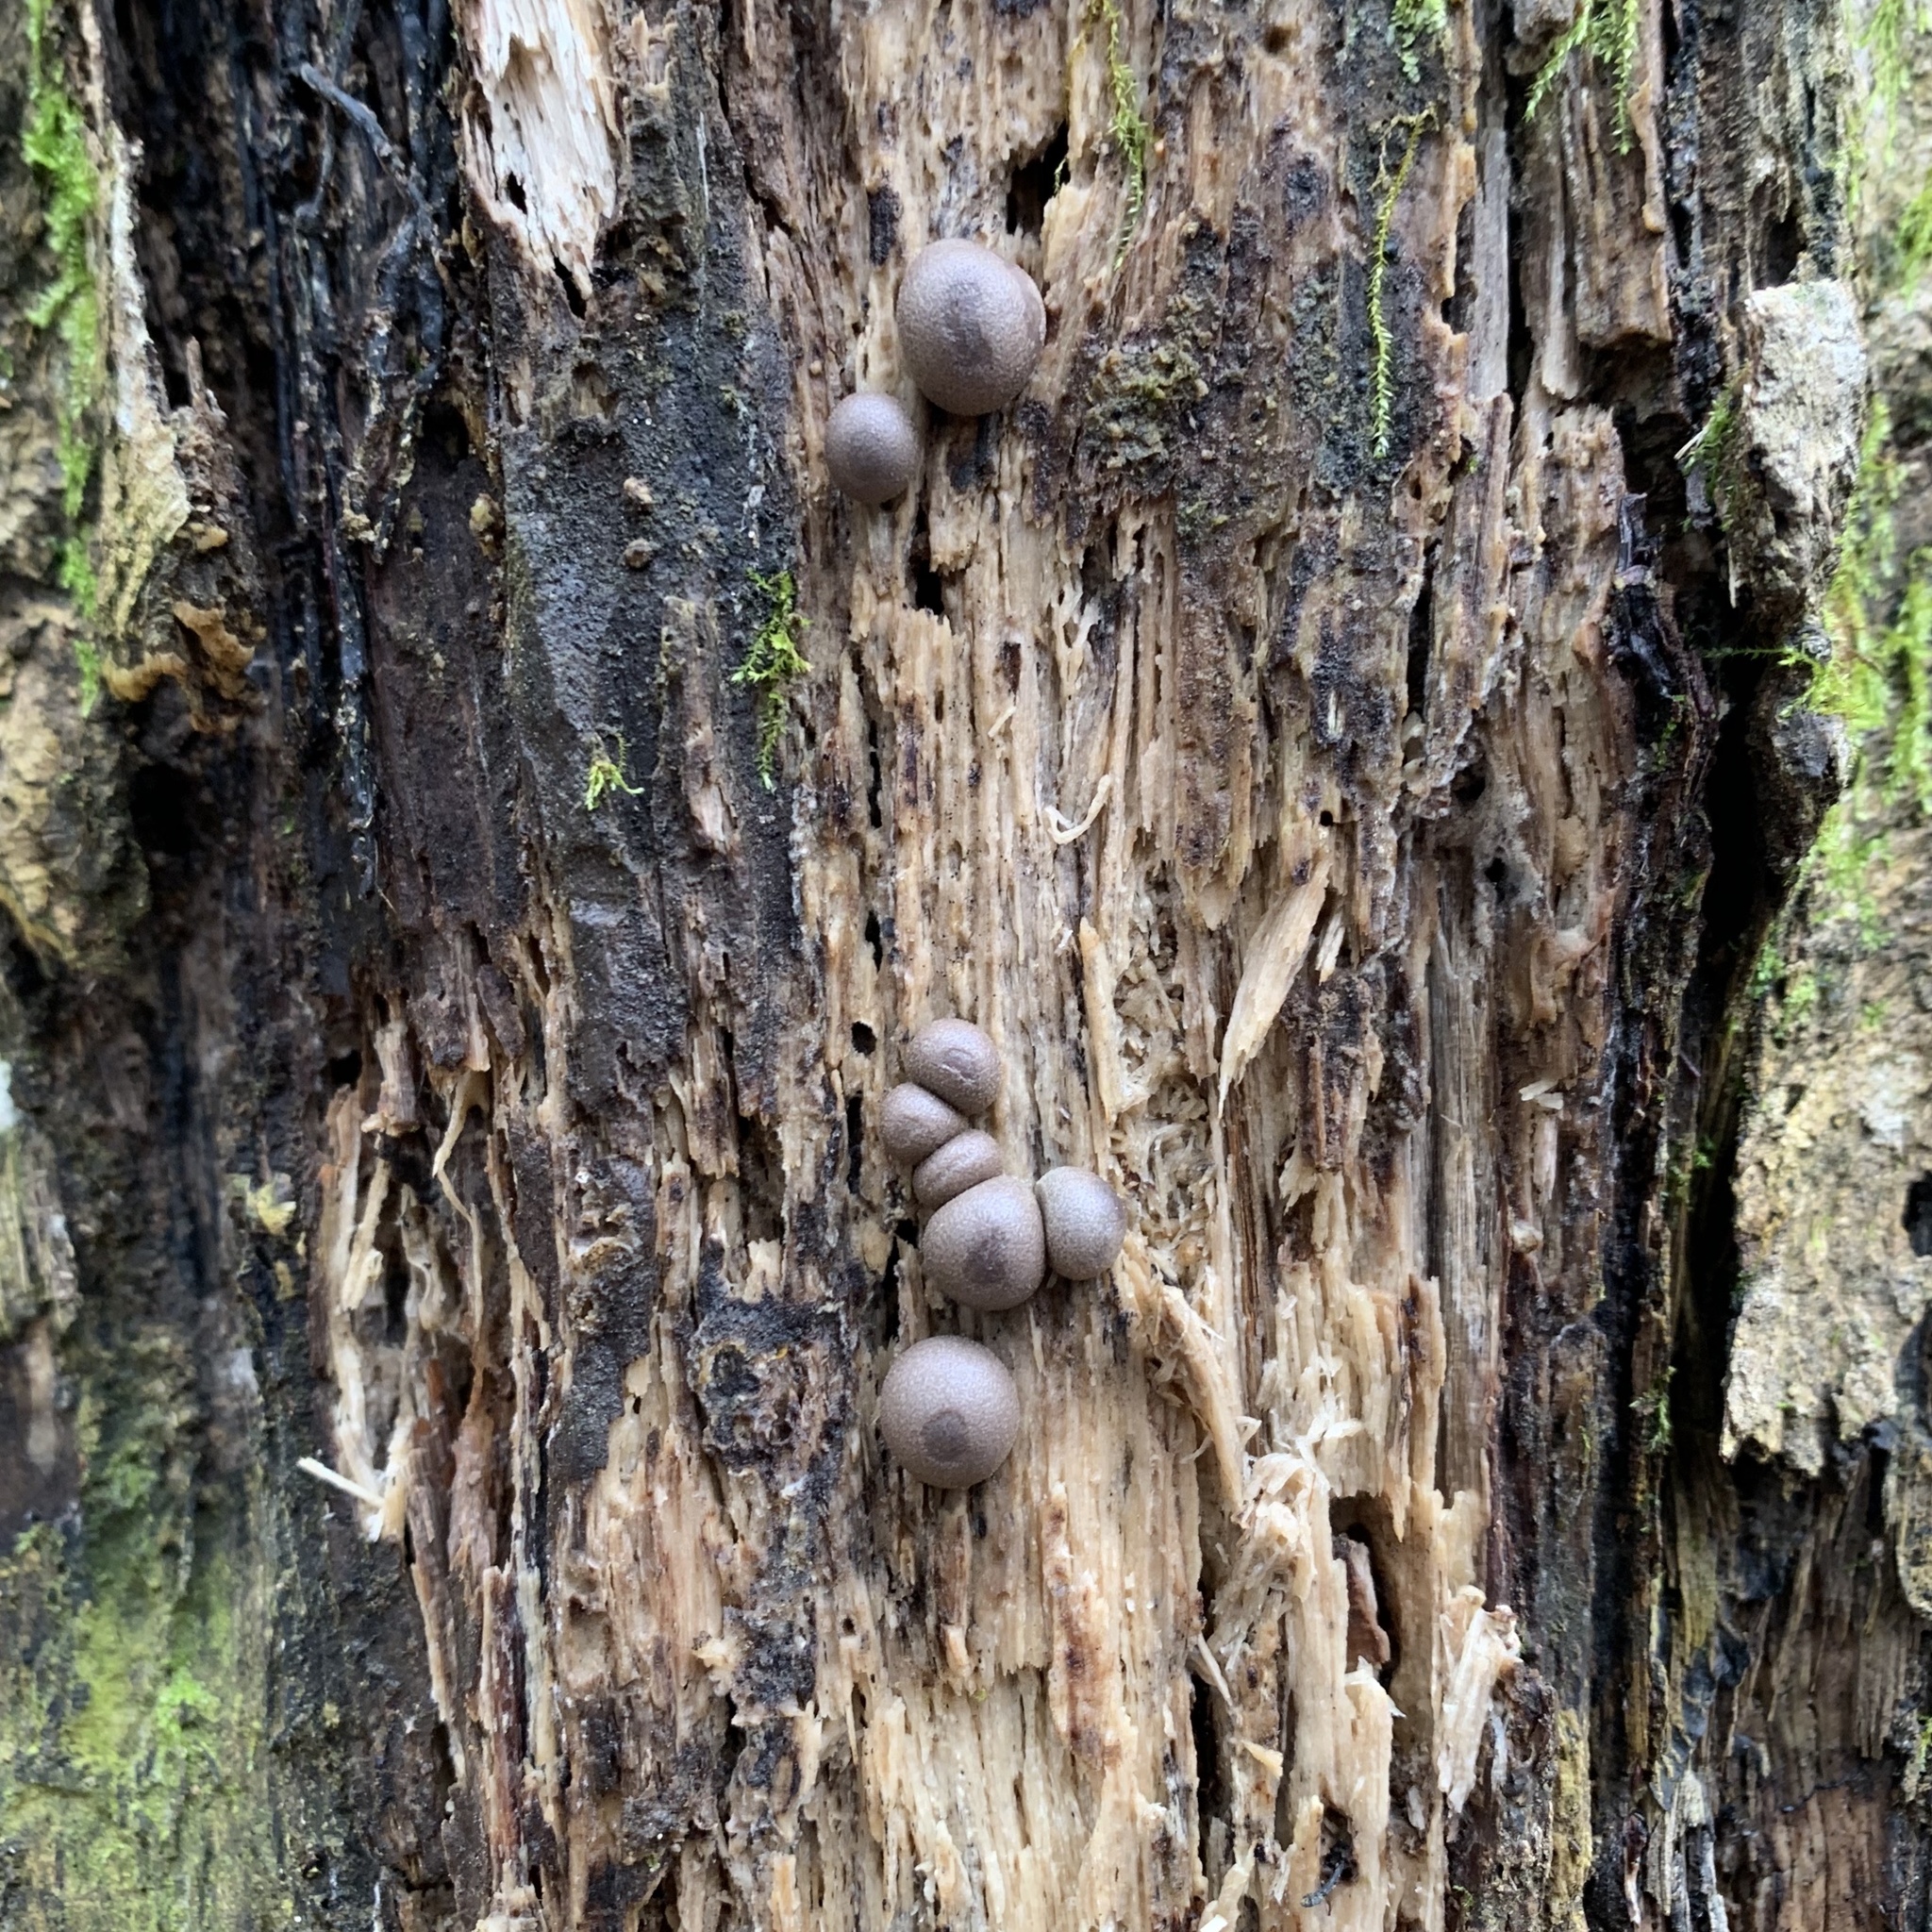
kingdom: Protozoa
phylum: Mycetozoa
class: Myxomycetes
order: Cribrariales
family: Tubiferaceae
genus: Lycogala
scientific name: Lycogala epidendrum
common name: Wolf's milk
